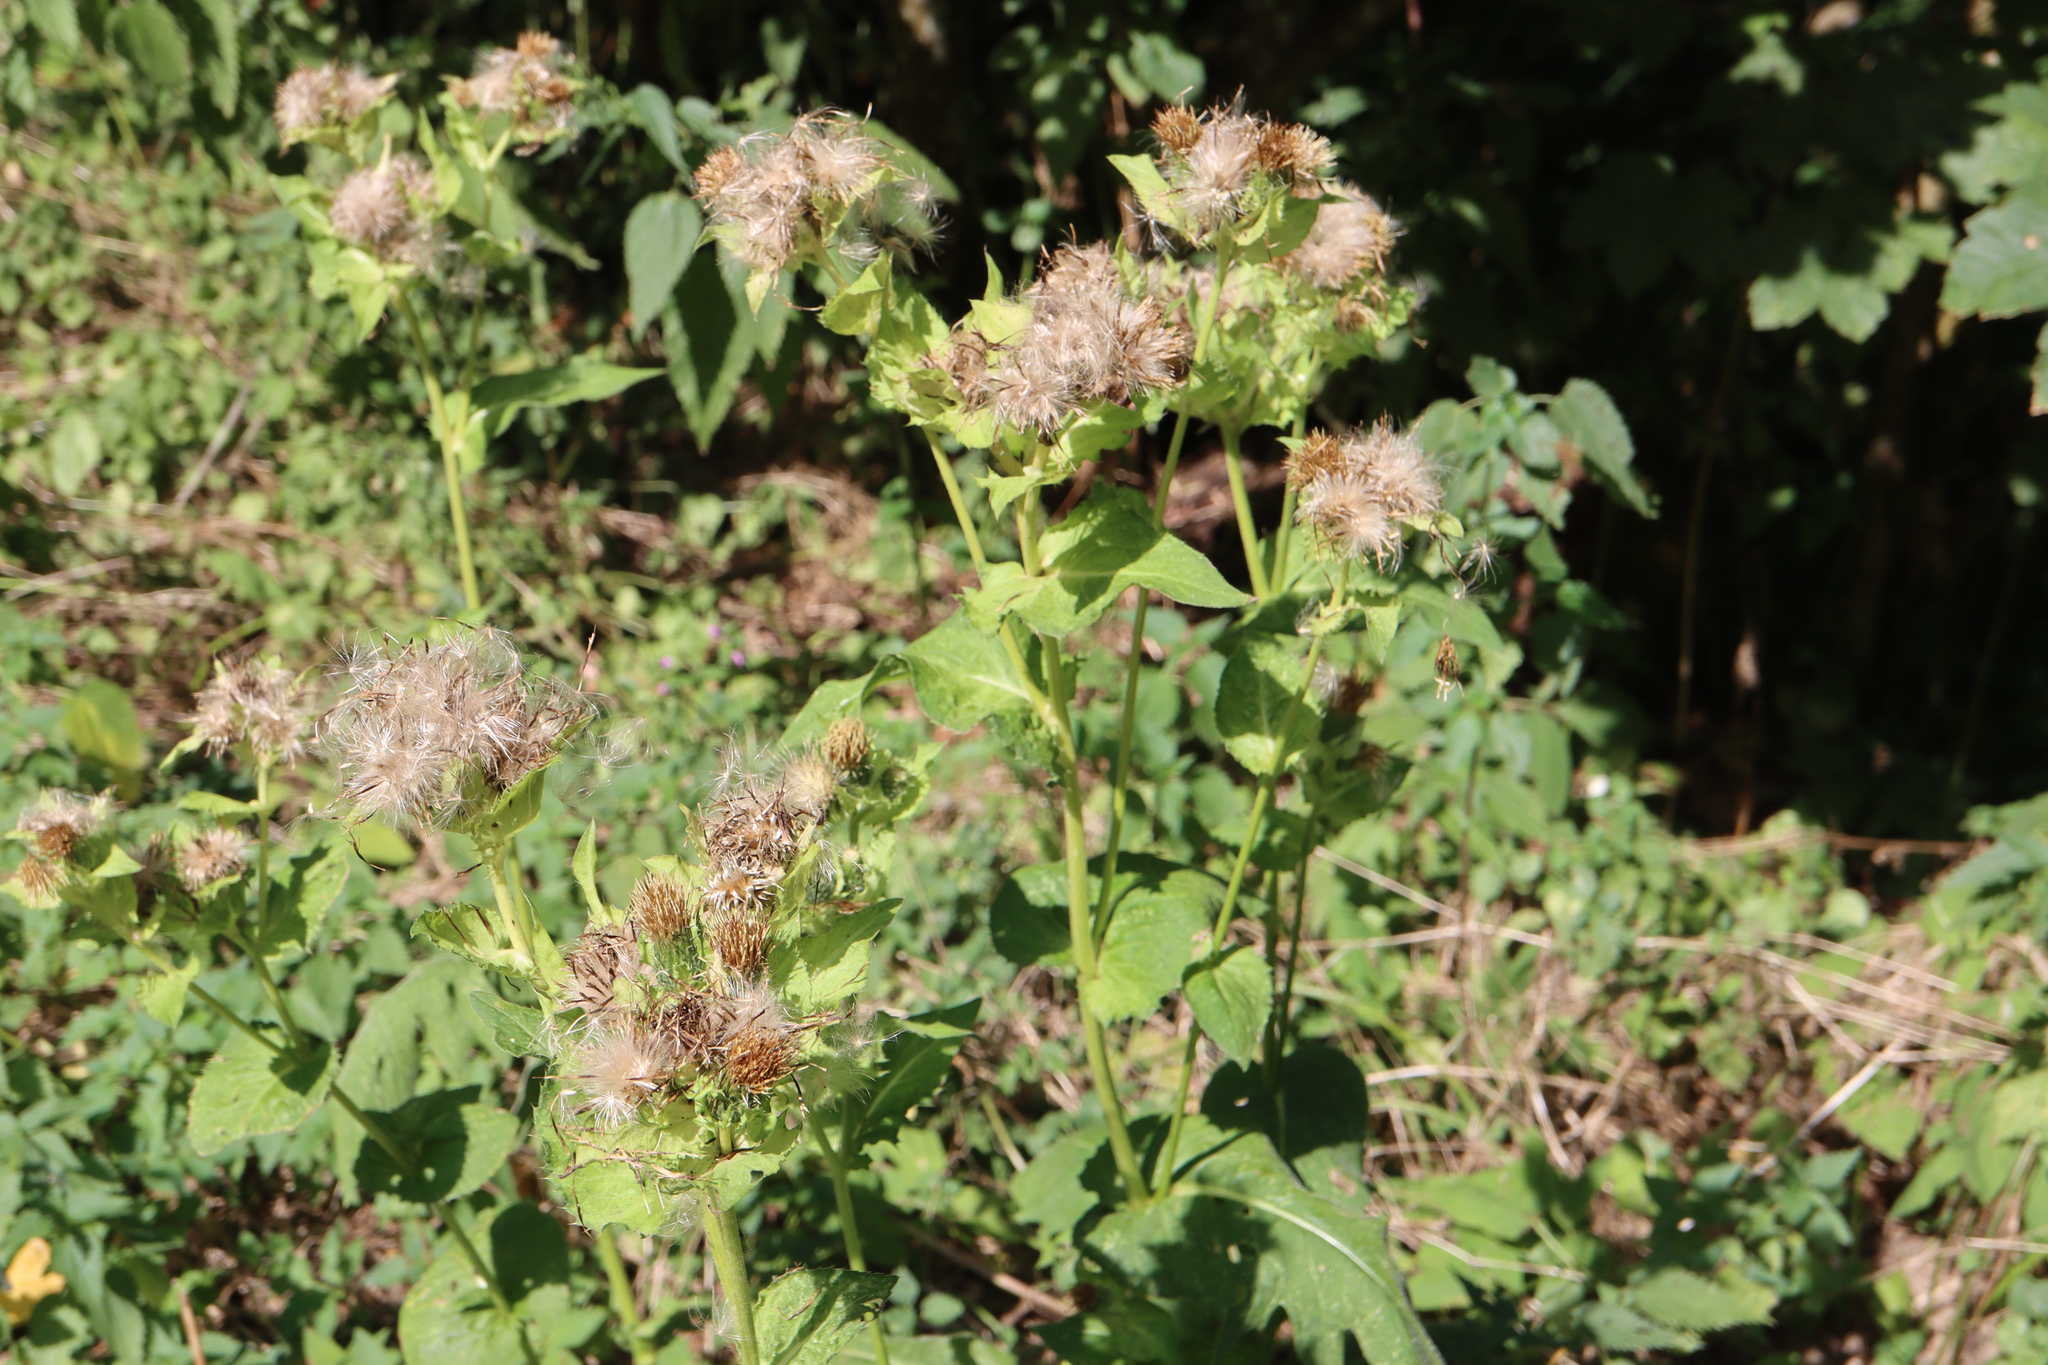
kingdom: Plantae
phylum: Tracheophyta
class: Magnoliopsida
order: Asterales
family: Asteraceae
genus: Cirsium
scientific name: Cirsium oleraceum
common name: Cabbage thistle
